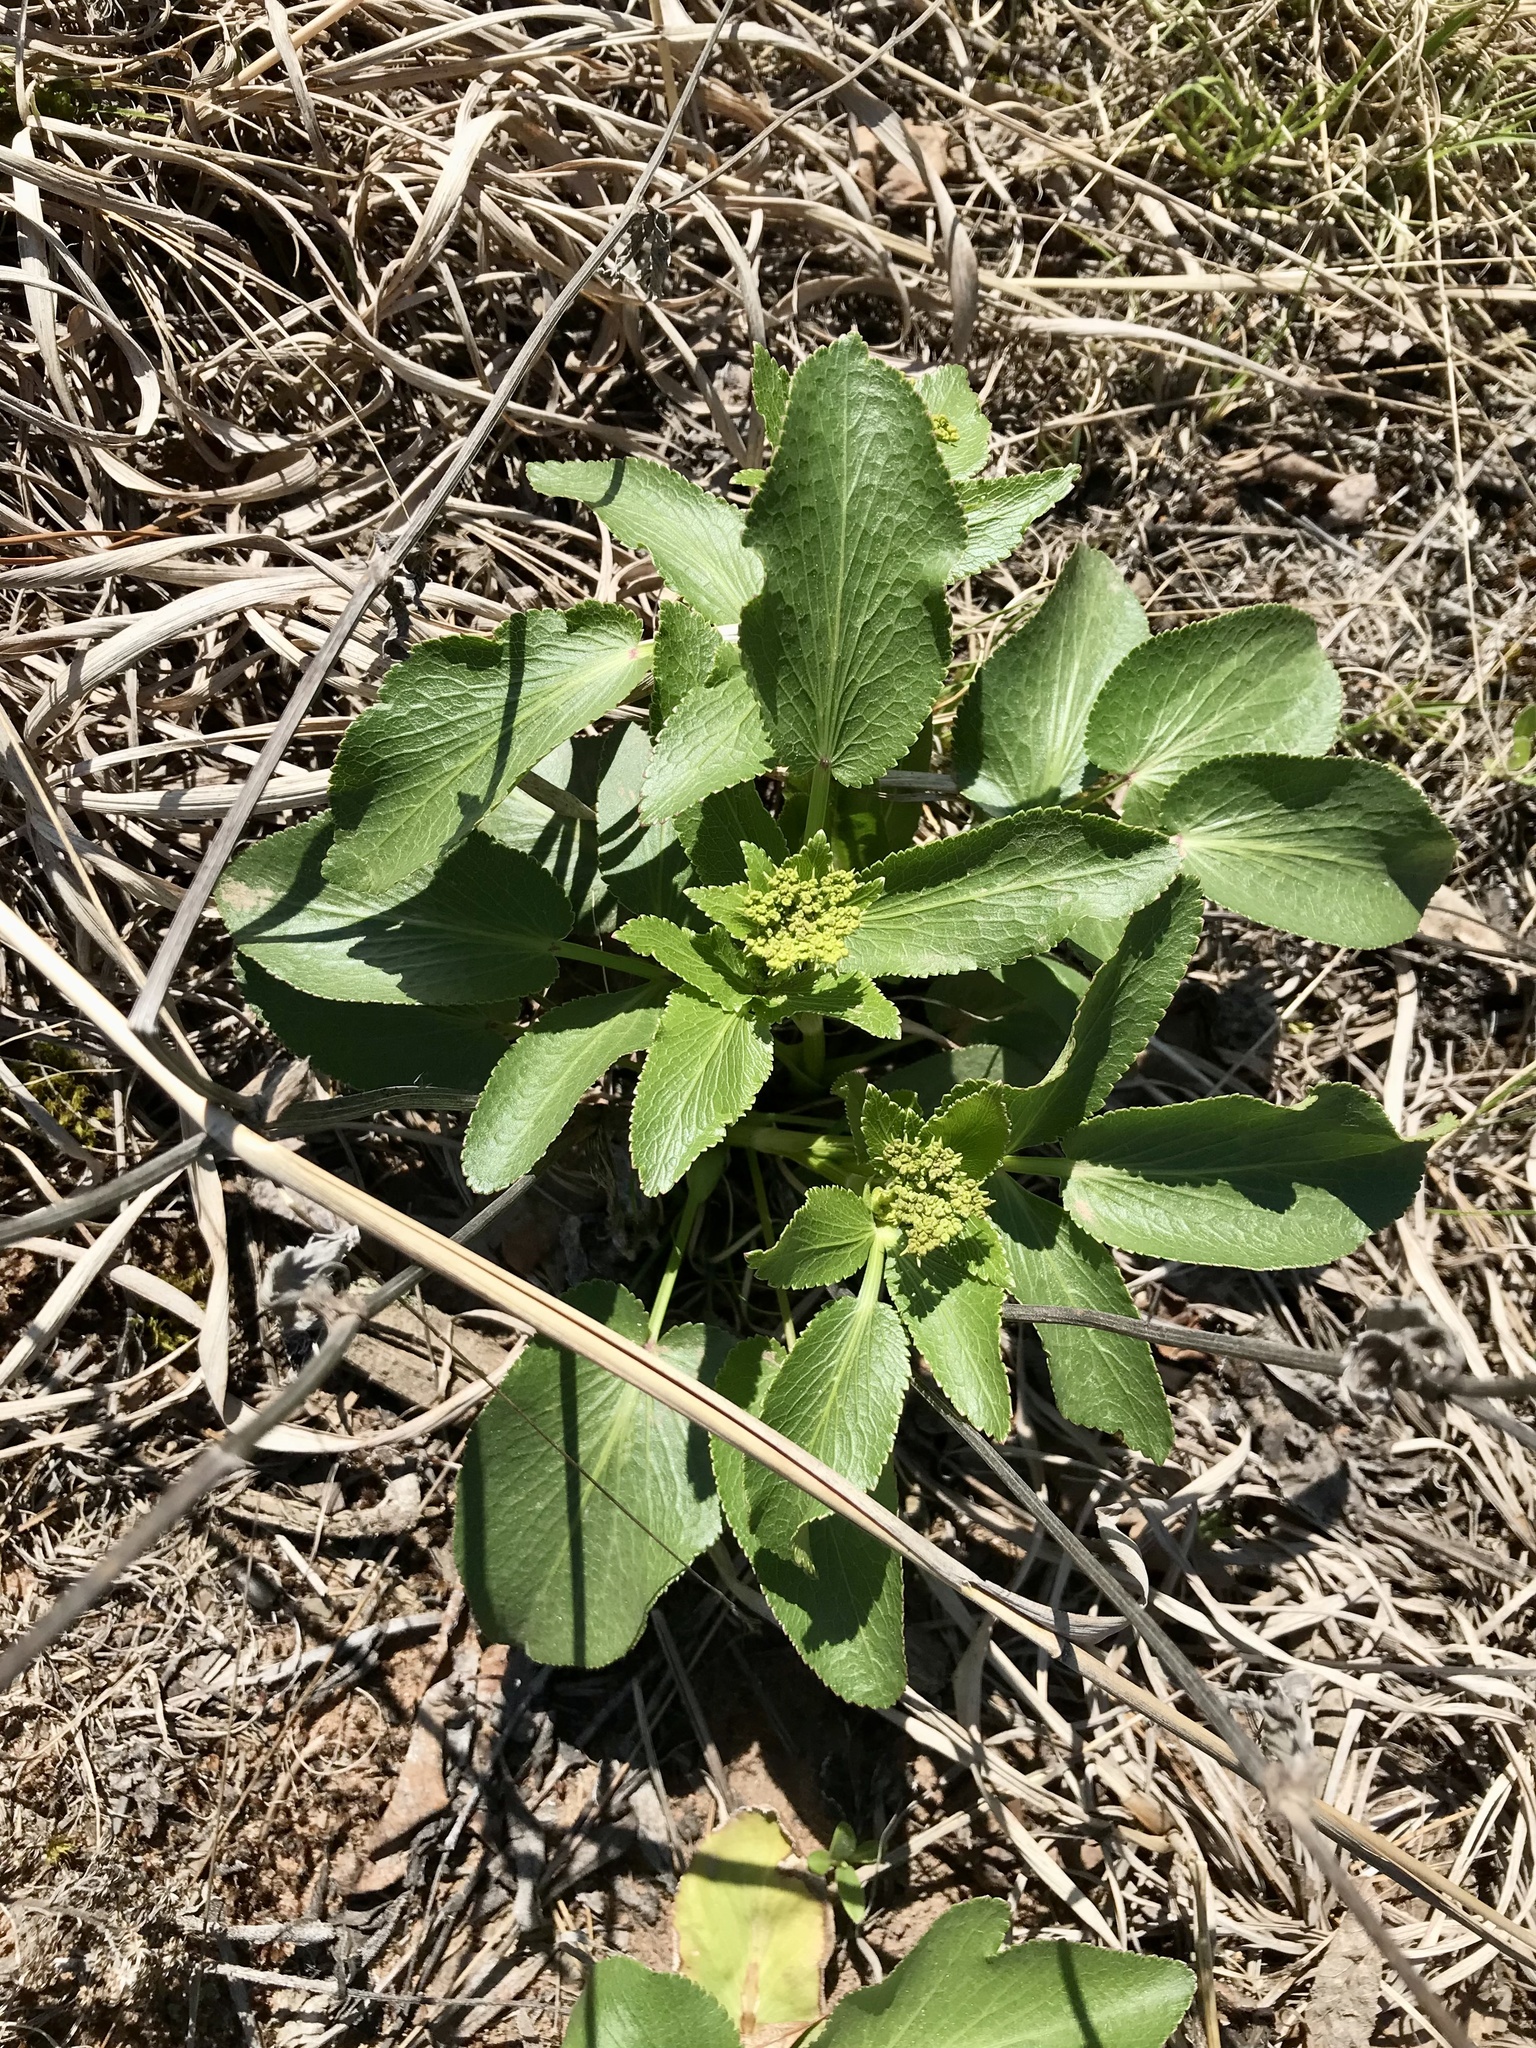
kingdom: Plantae
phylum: Tracheophyta
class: Magnoliopsida
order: Apiales
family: Apiaceae
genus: Zizia
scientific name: Zizia aptera
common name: Heart-leaved alexanders
